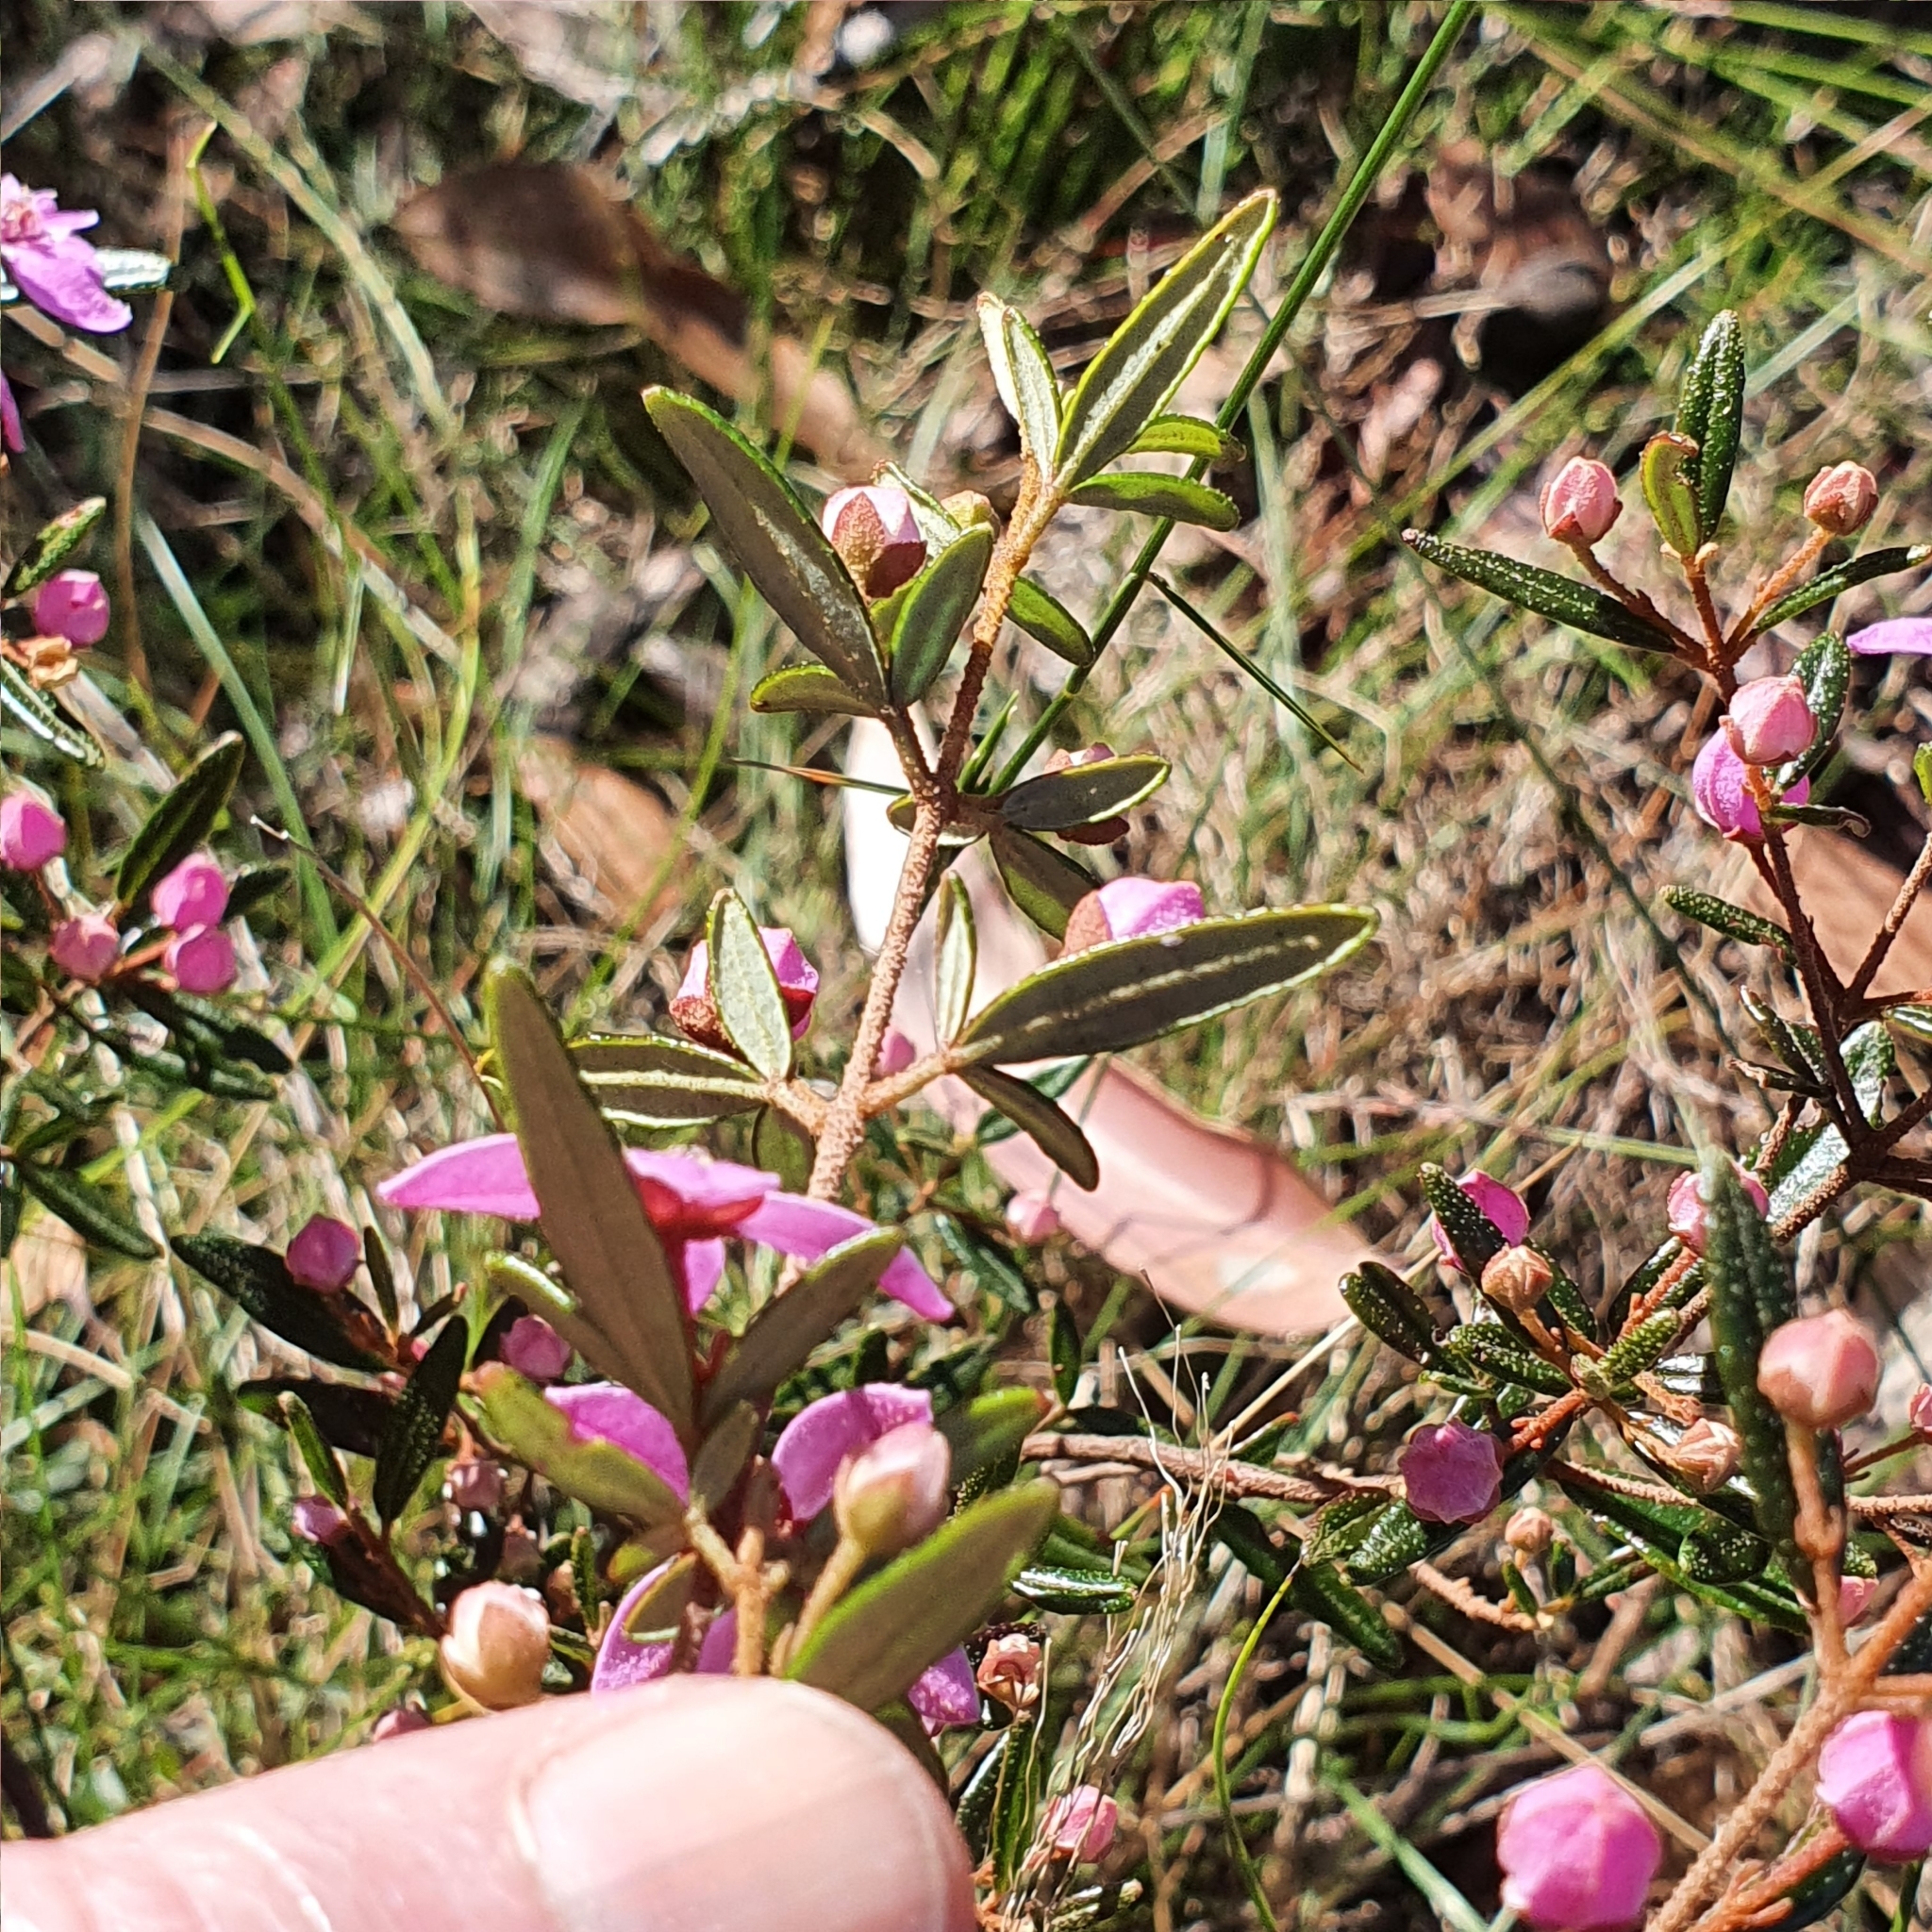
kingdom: Plantae
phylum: Tracheophyta
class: Magnoliopsida
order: Sapindales
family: Rutaceae
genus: Boronia
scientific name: Boronia ledifolia
